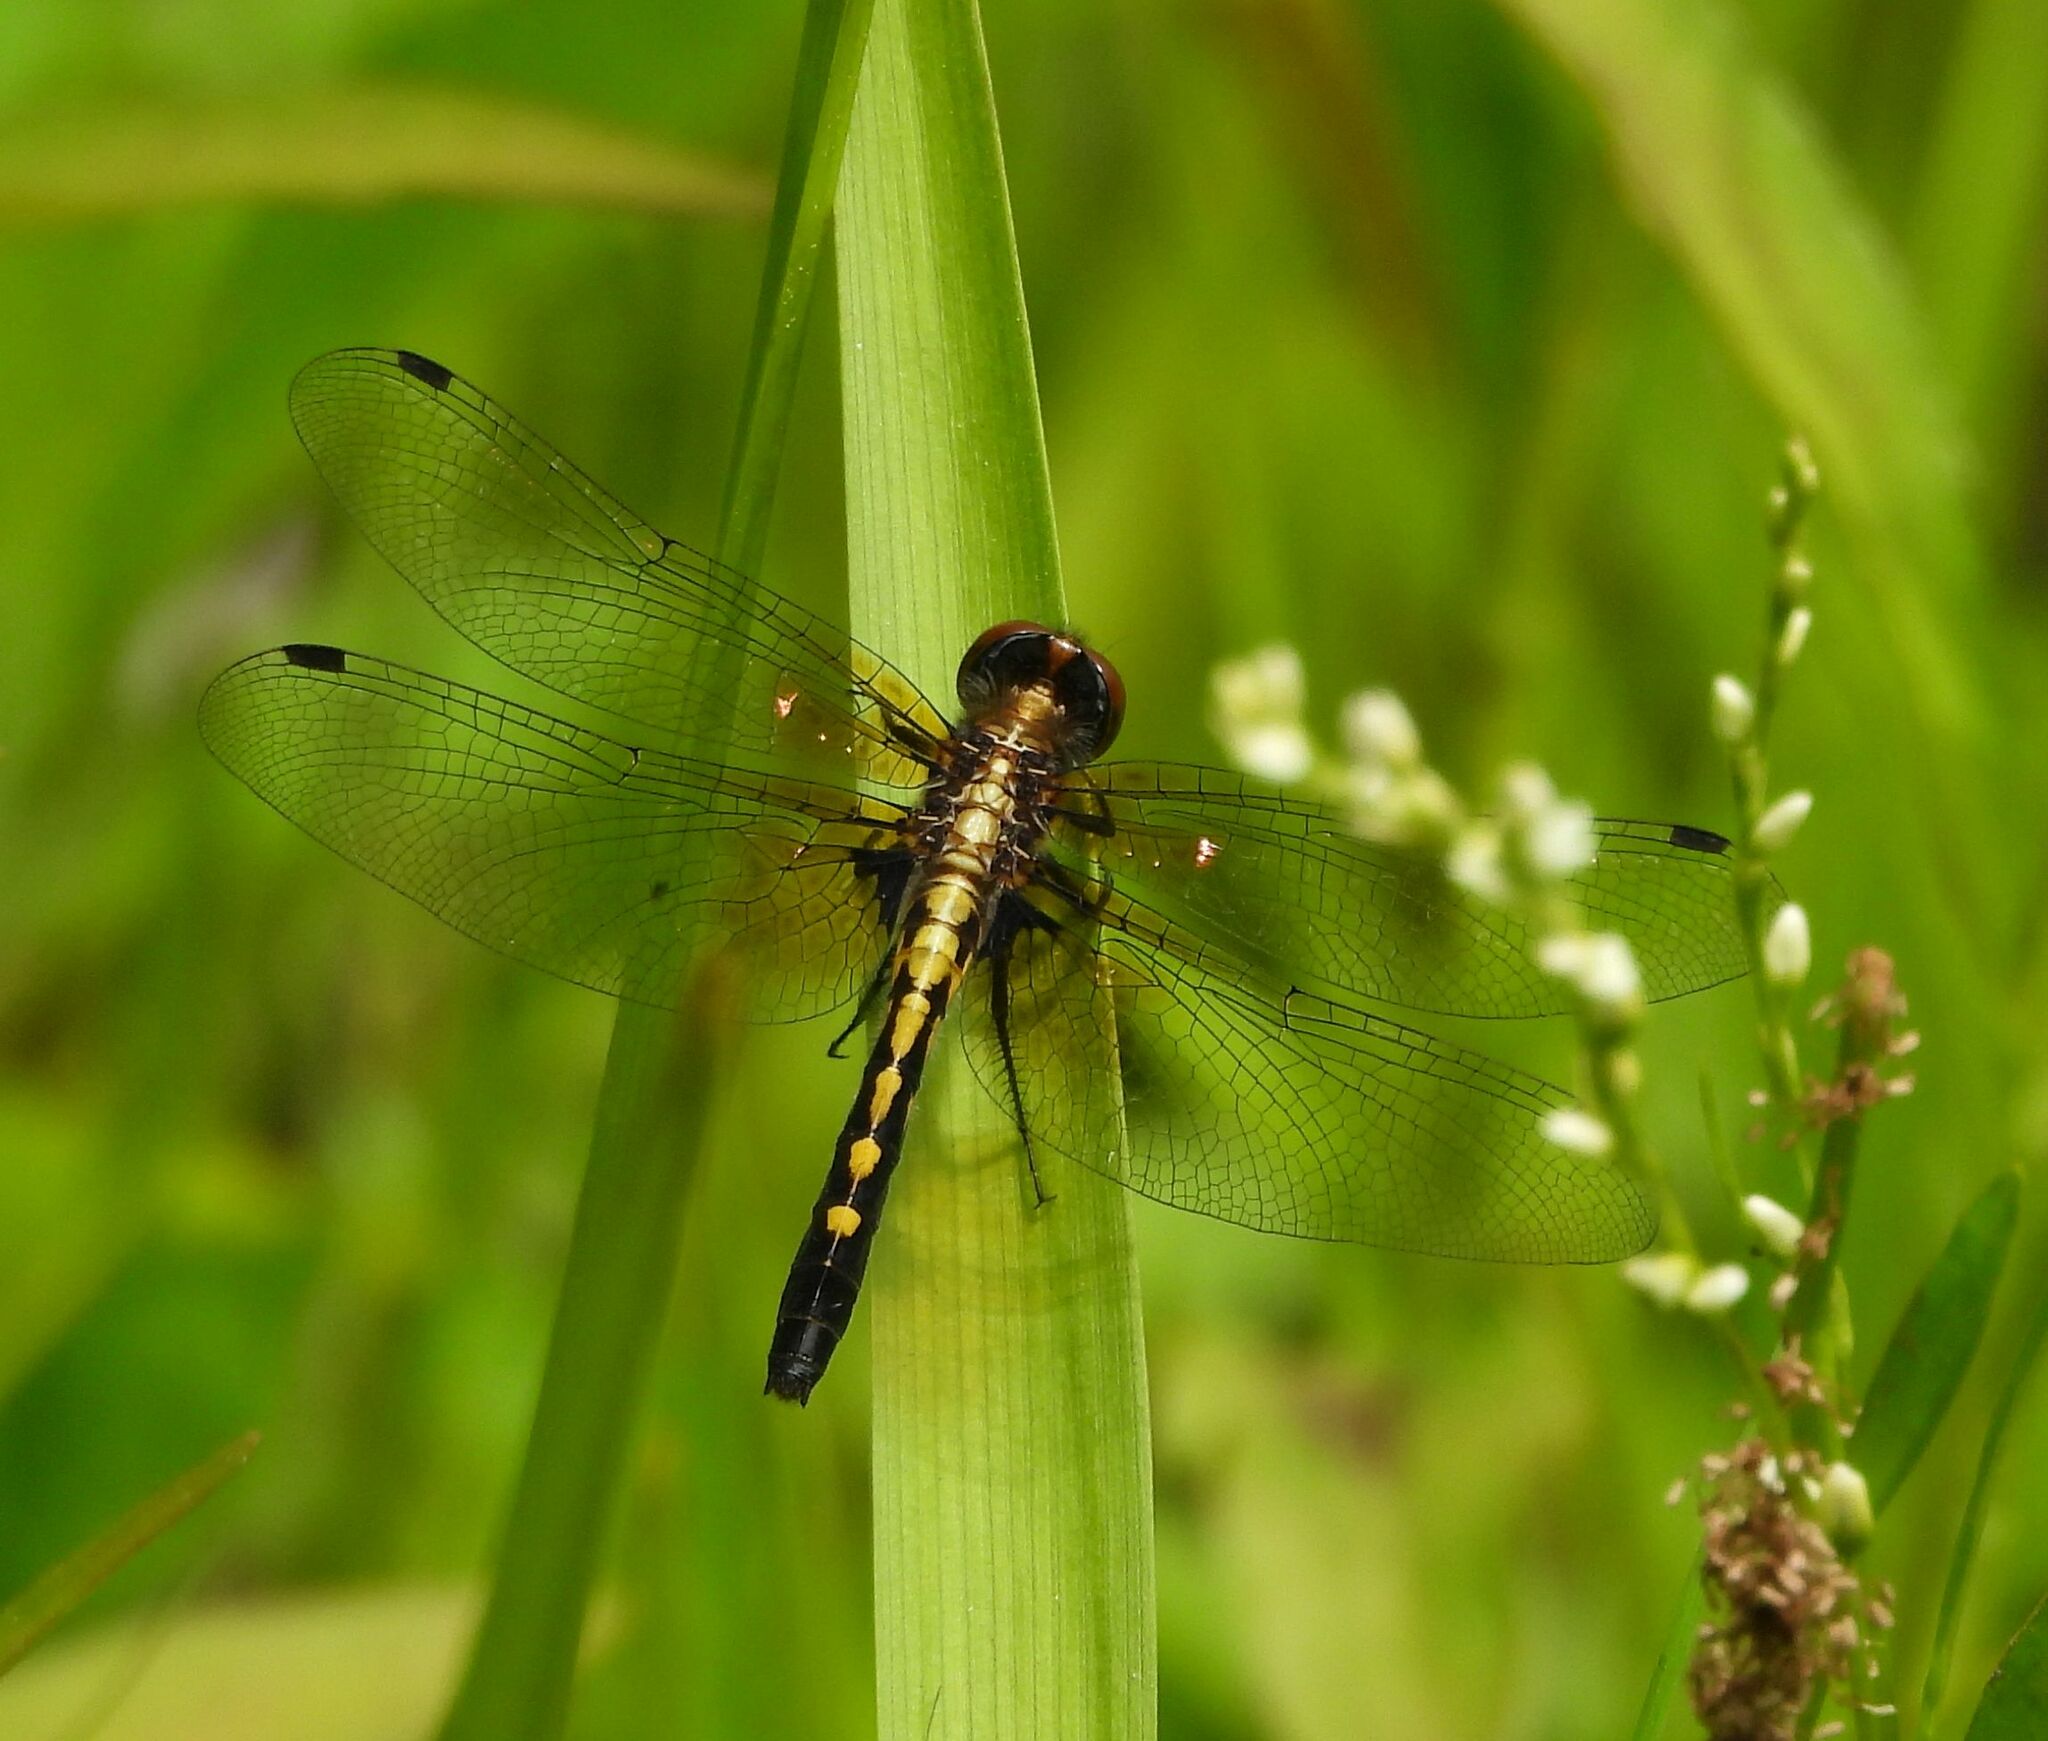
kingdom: Animalia
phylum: Arthropoda
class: Insecta
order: Odonata
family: Libellulidae
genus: Leucorrhinia
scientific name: Leucorrhinia intacta
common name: Dot-tailed whiteface
